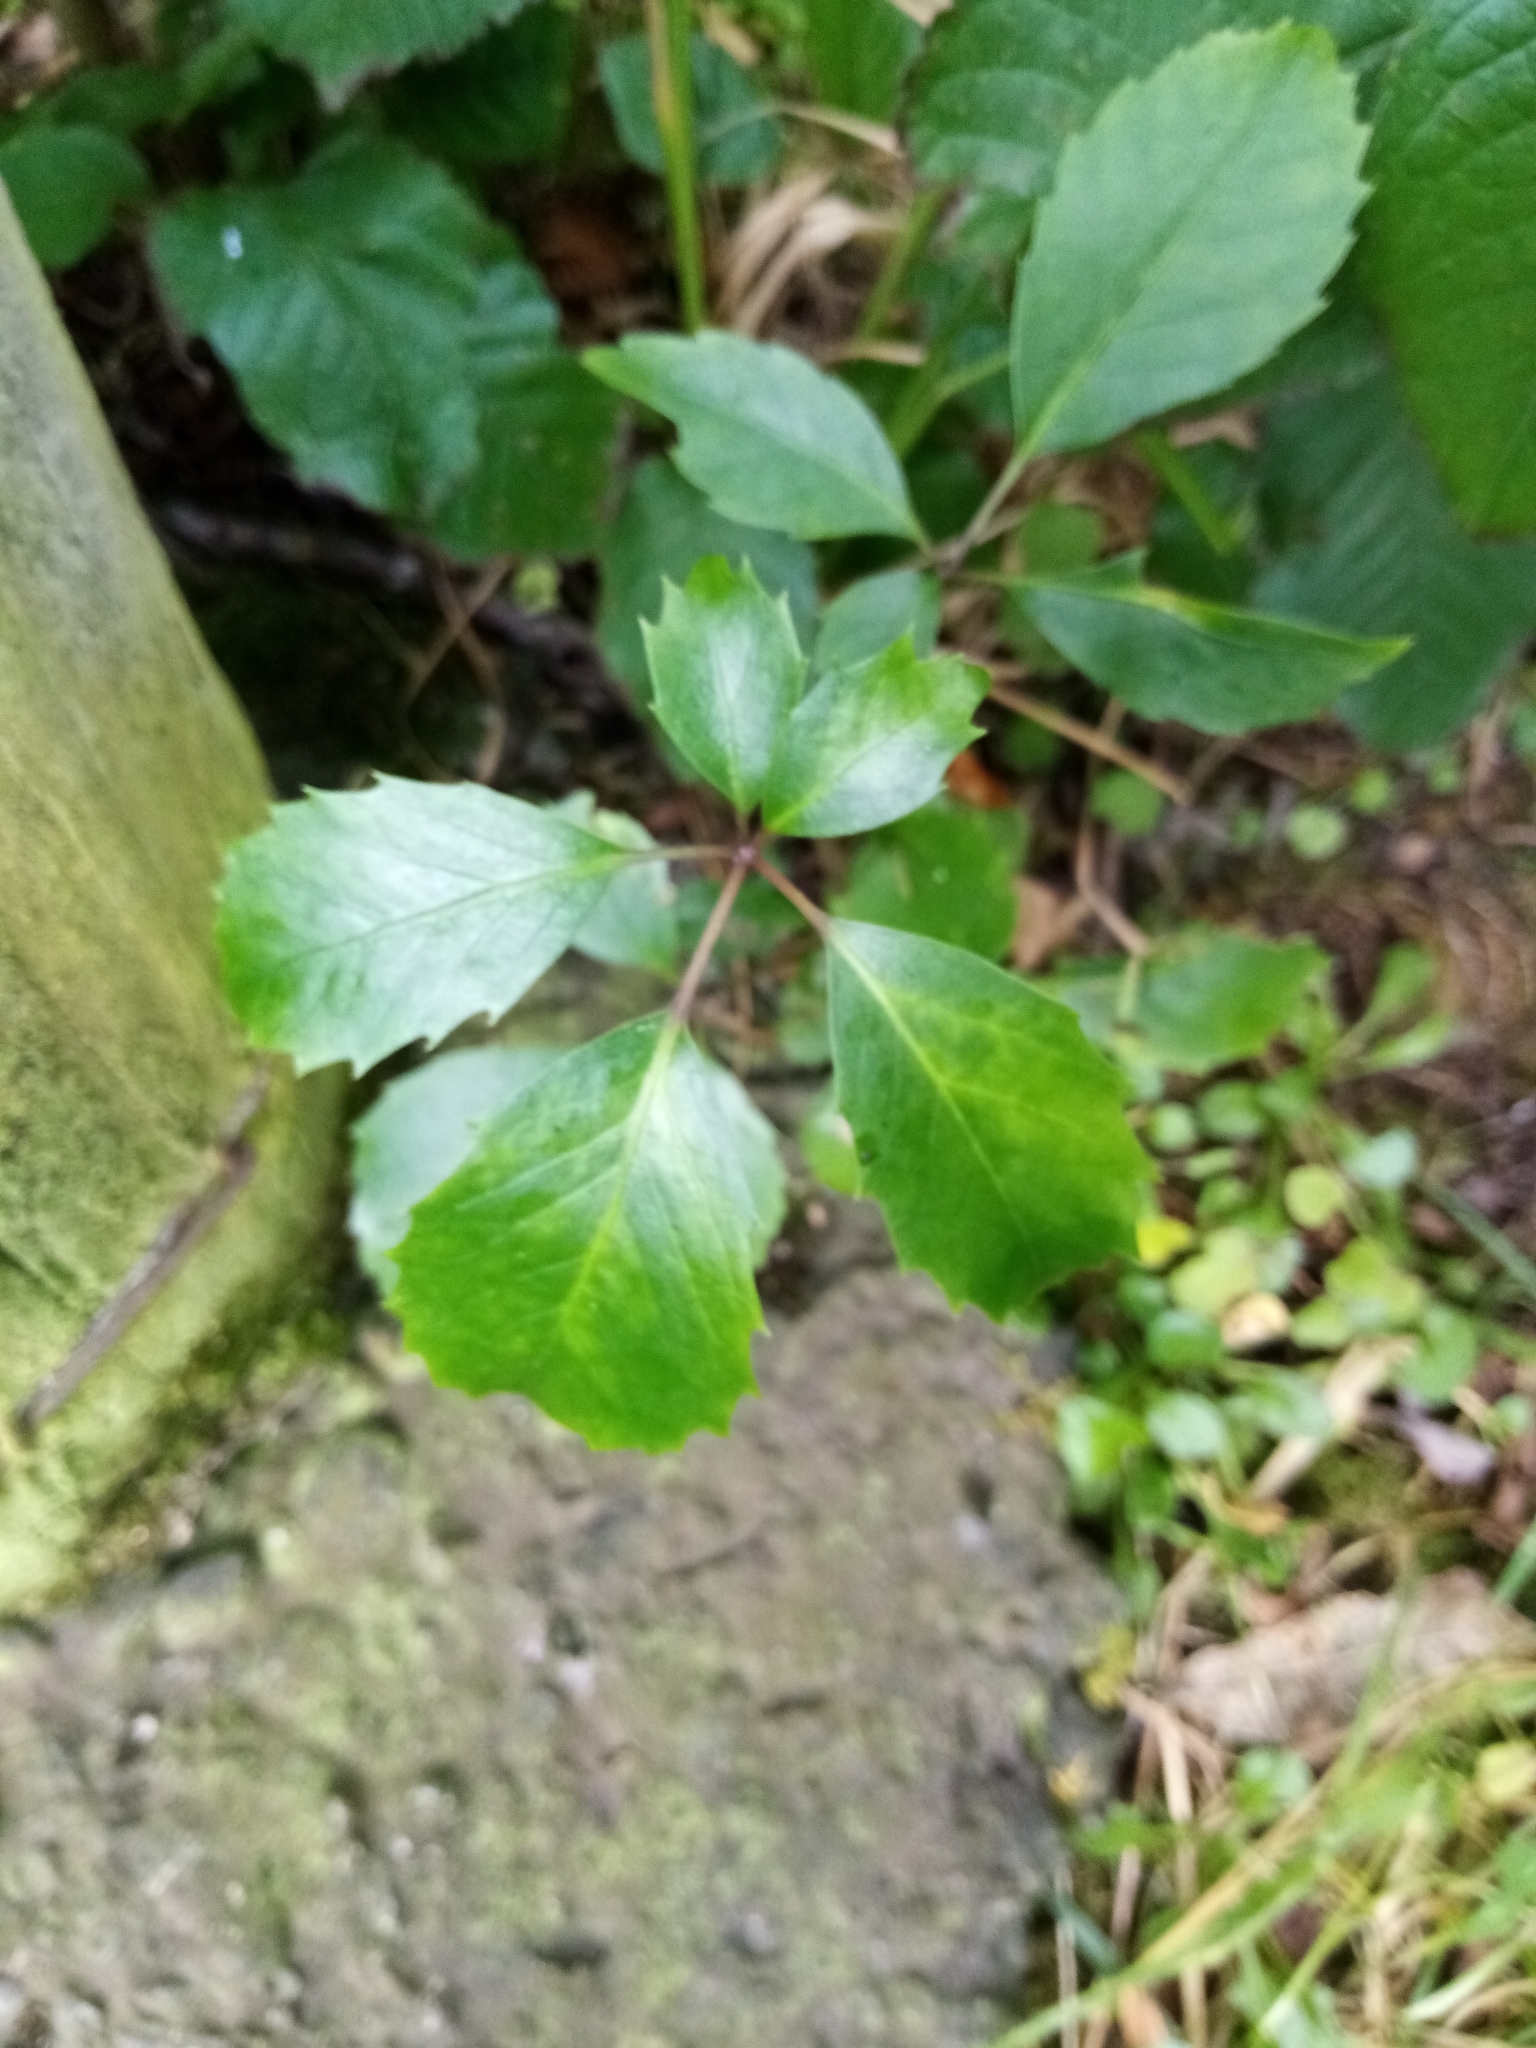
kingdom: Plantae
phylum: Tracheophyta
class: Magnoliopsida
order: Apiales
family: Araliaceae
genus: Neopanax
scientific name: Neopanax arboreus
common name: Five-fingers
